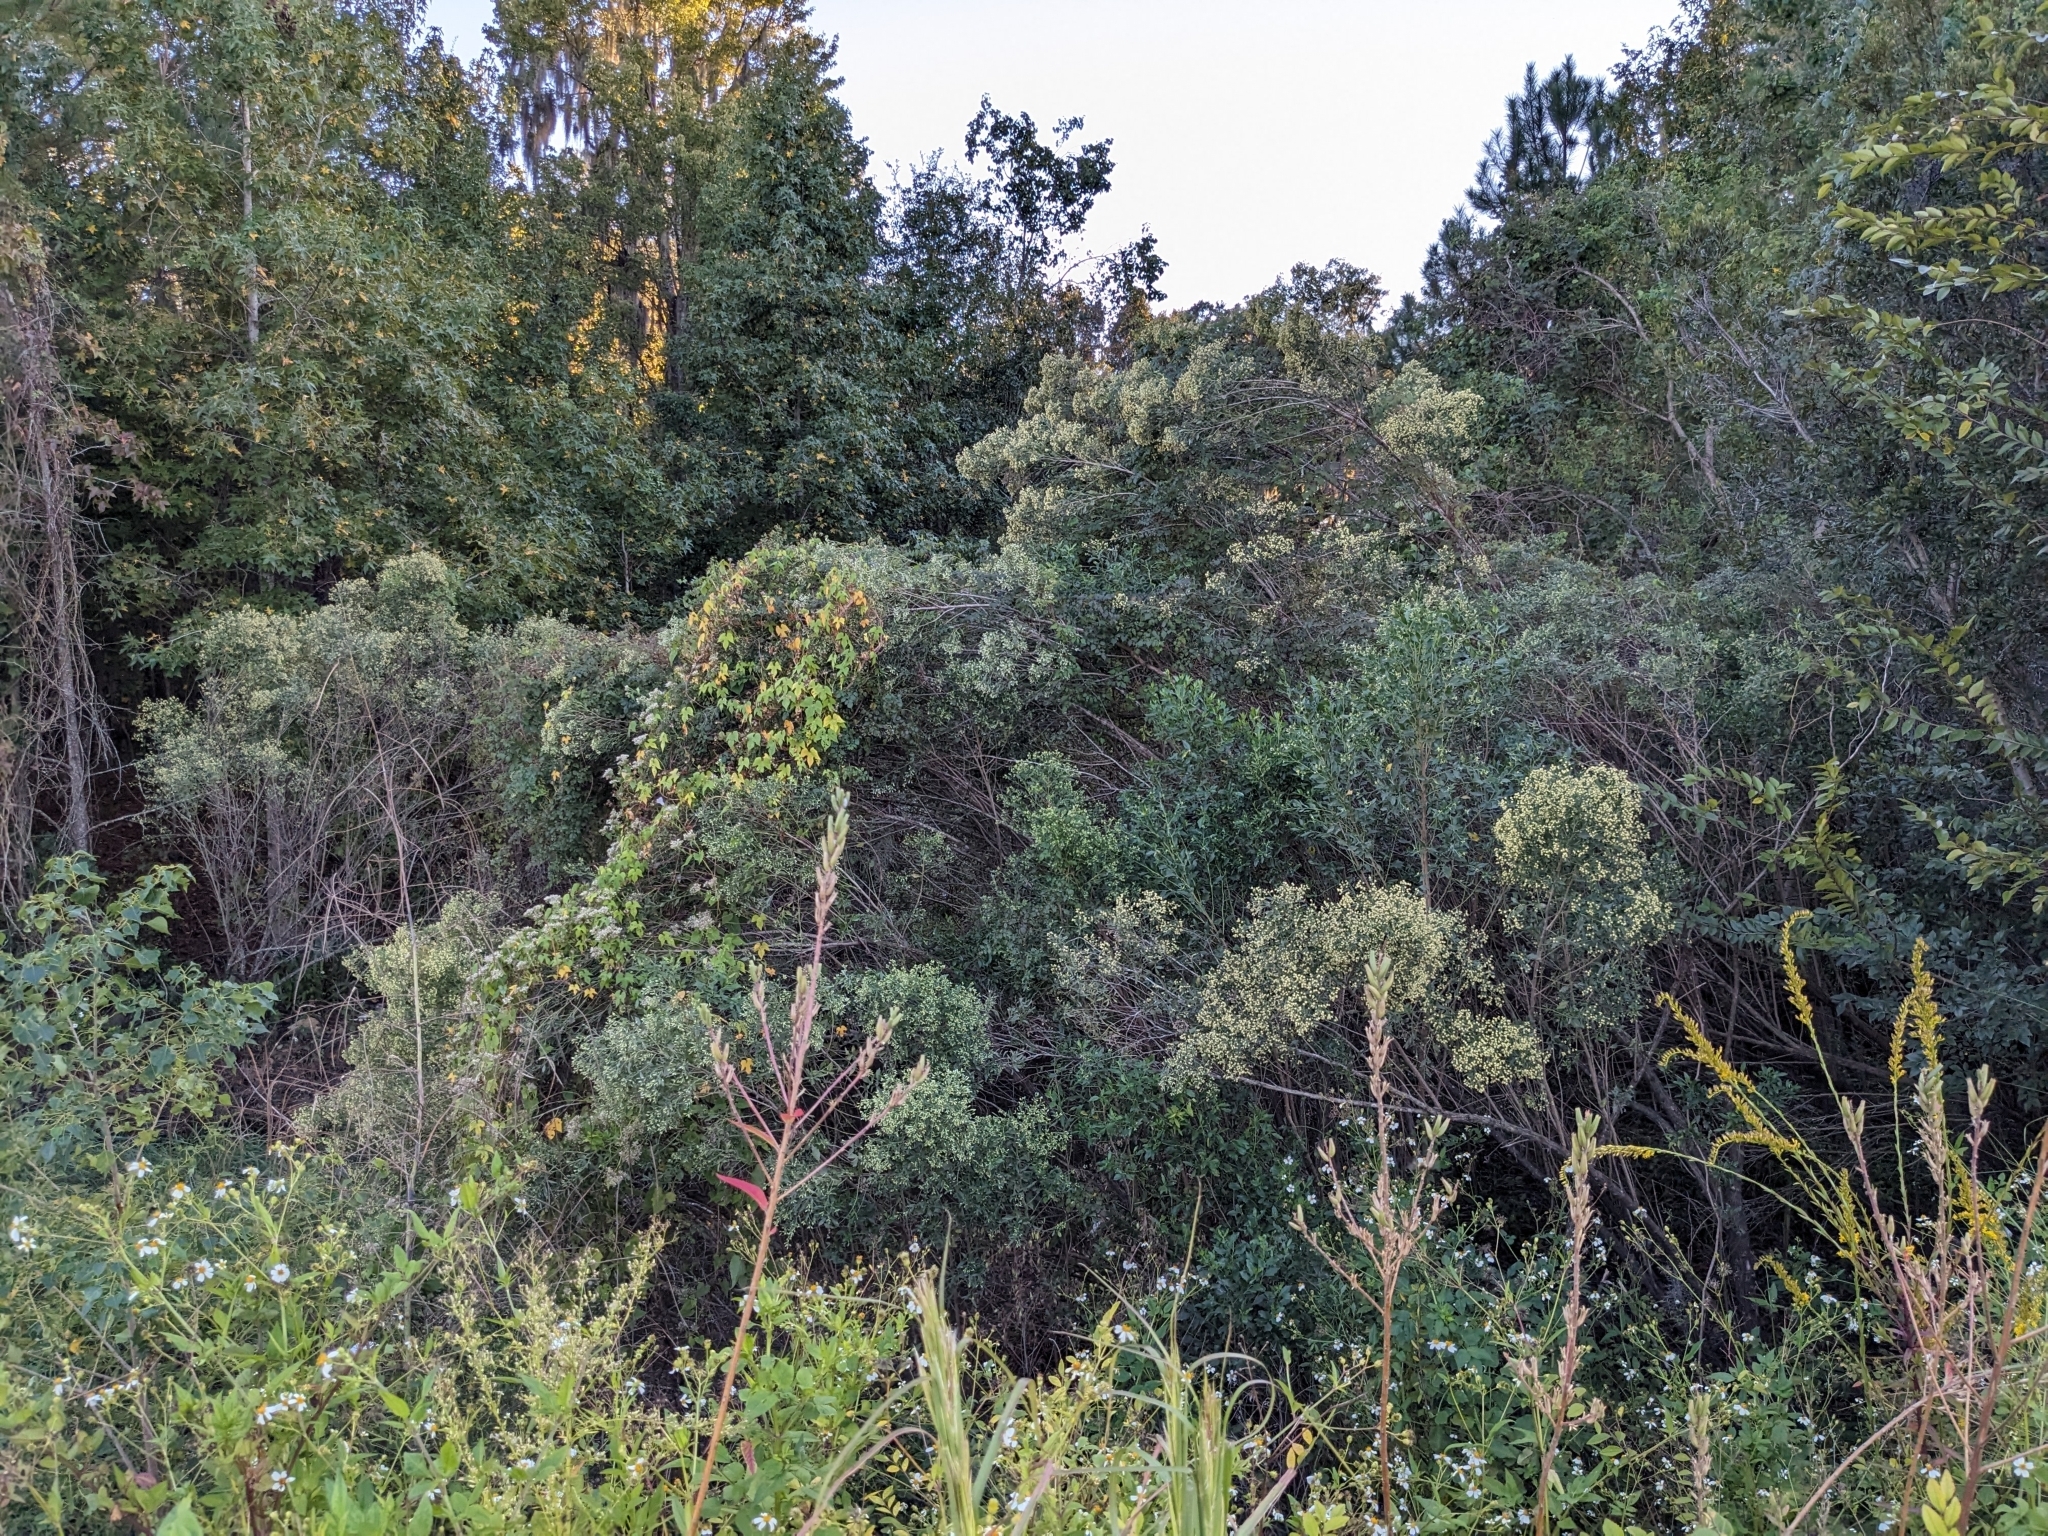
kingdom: Plantae
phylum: Tracheophyta
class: Magnoliopsida
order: Asterales
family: Asteraceae
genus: Baccharis
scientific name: Baccharis halimifolia
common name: Eastern baccharis
